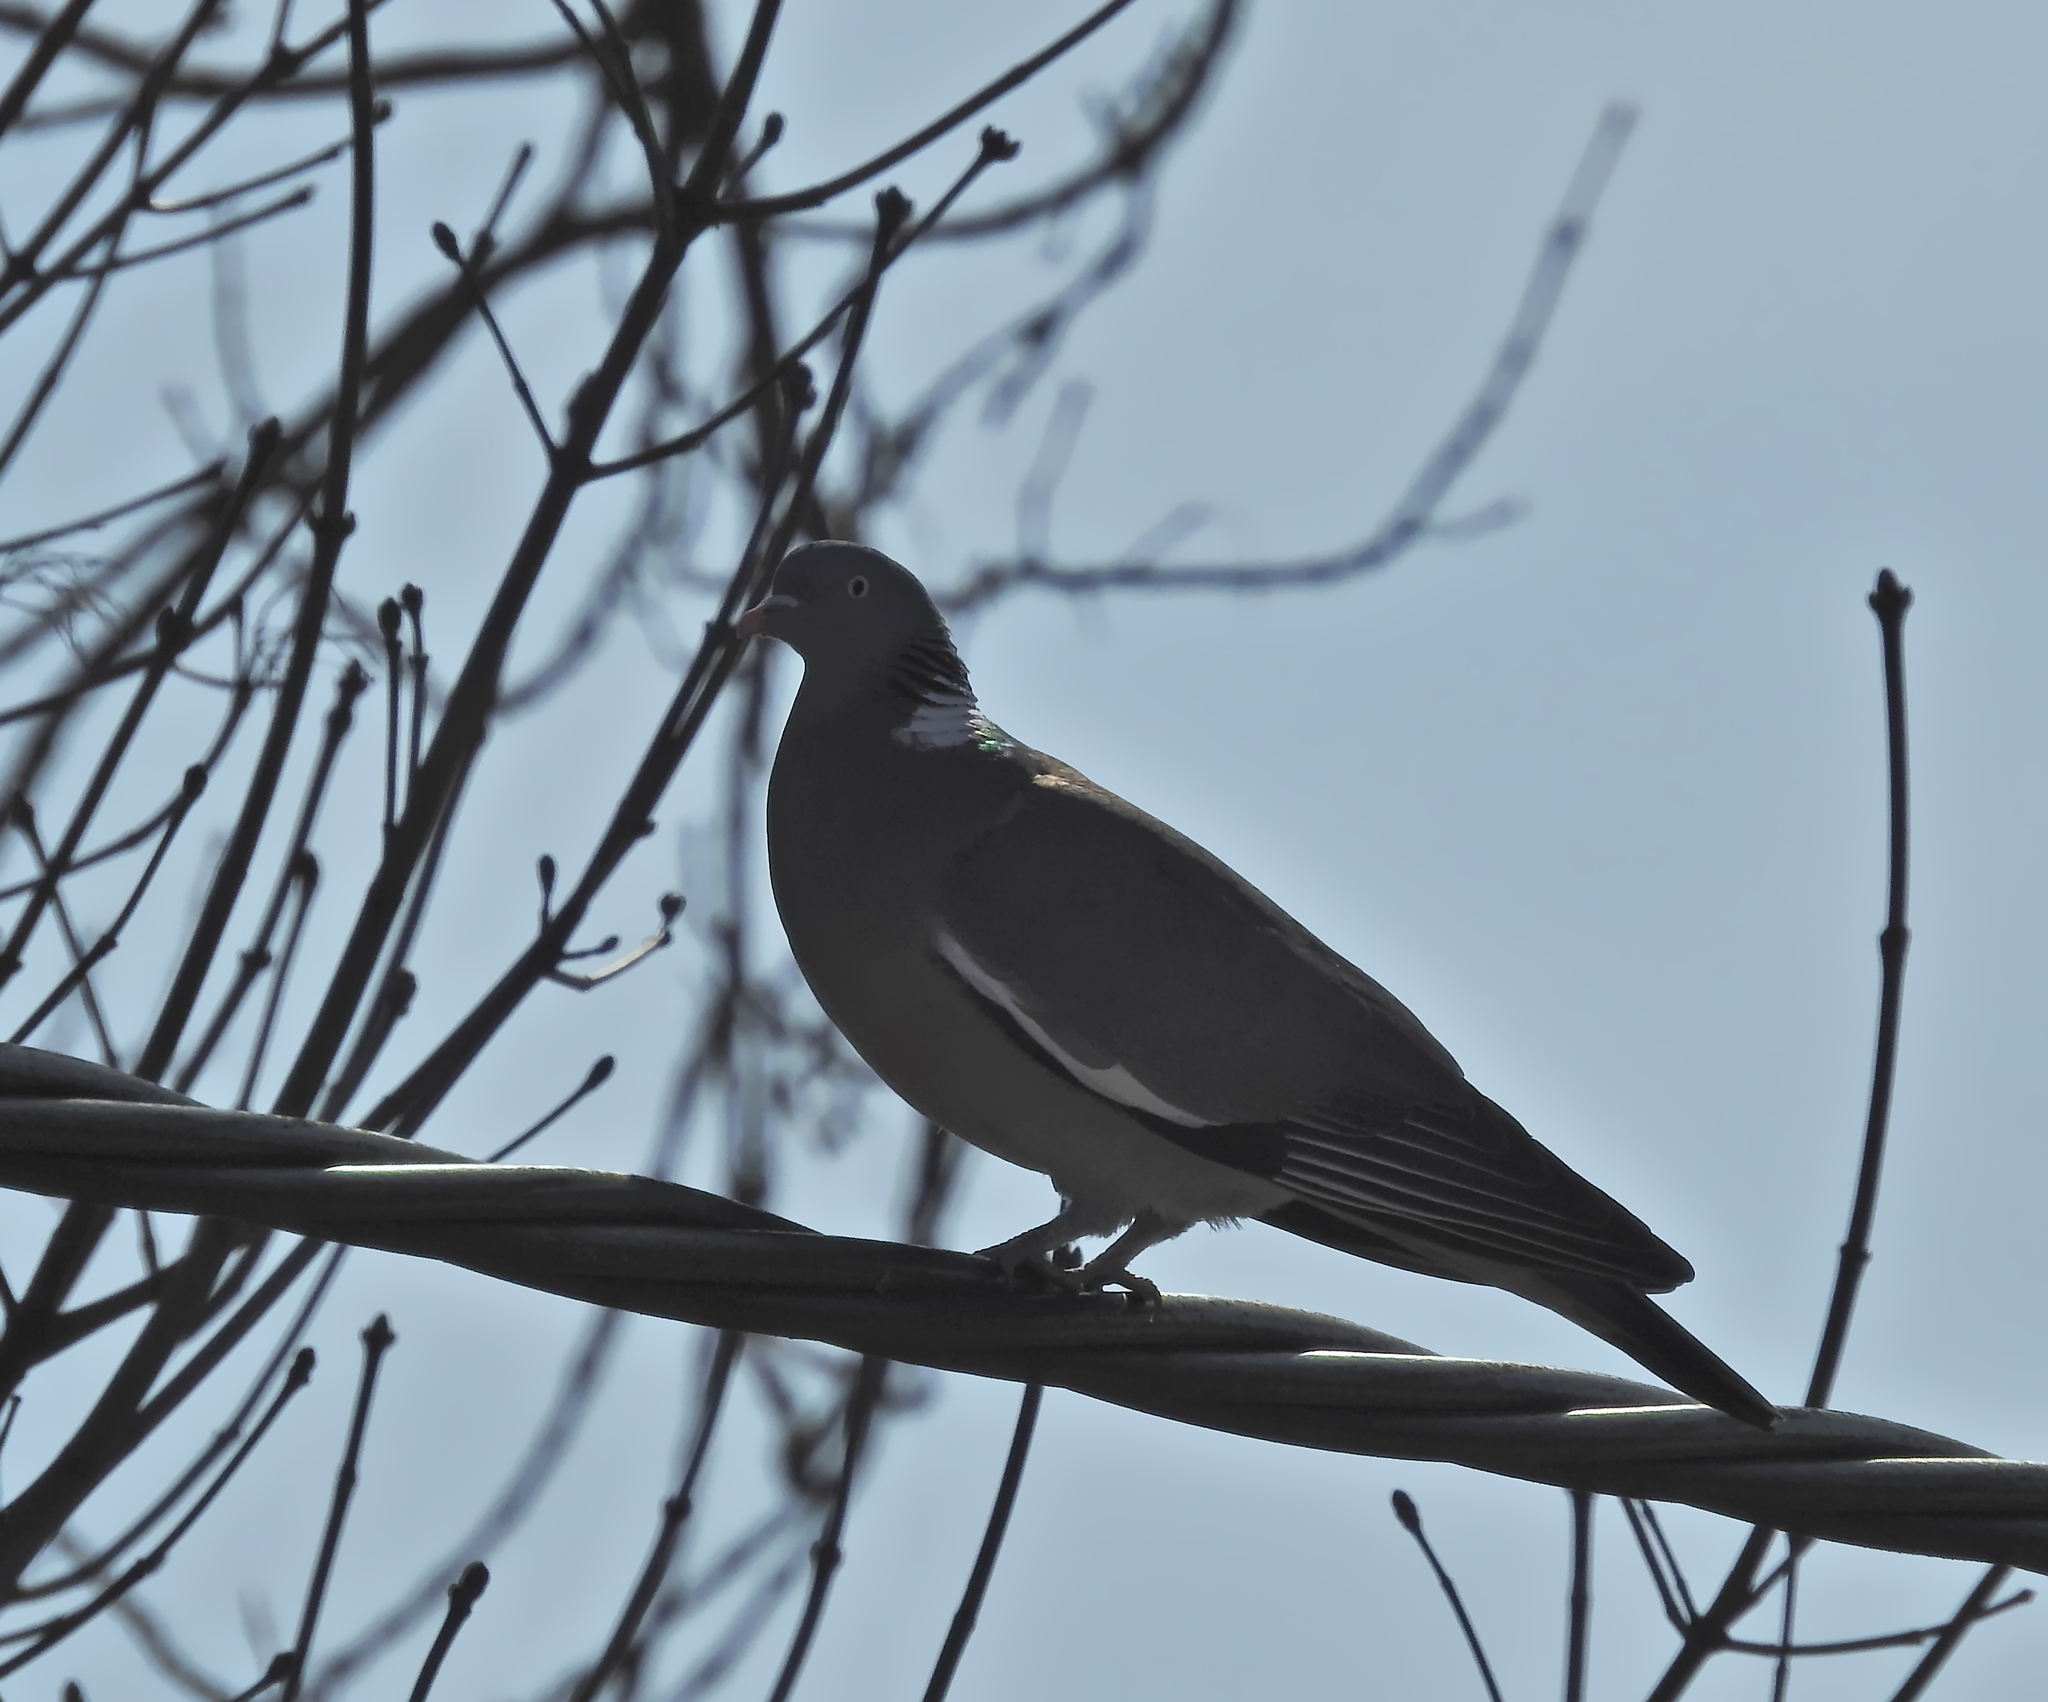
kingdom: Animalia
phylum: Chordata
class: Aves
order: Columbiformes
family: Columbidae
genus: Columba
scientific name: Columba palumbus
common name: Common wood pigeon
